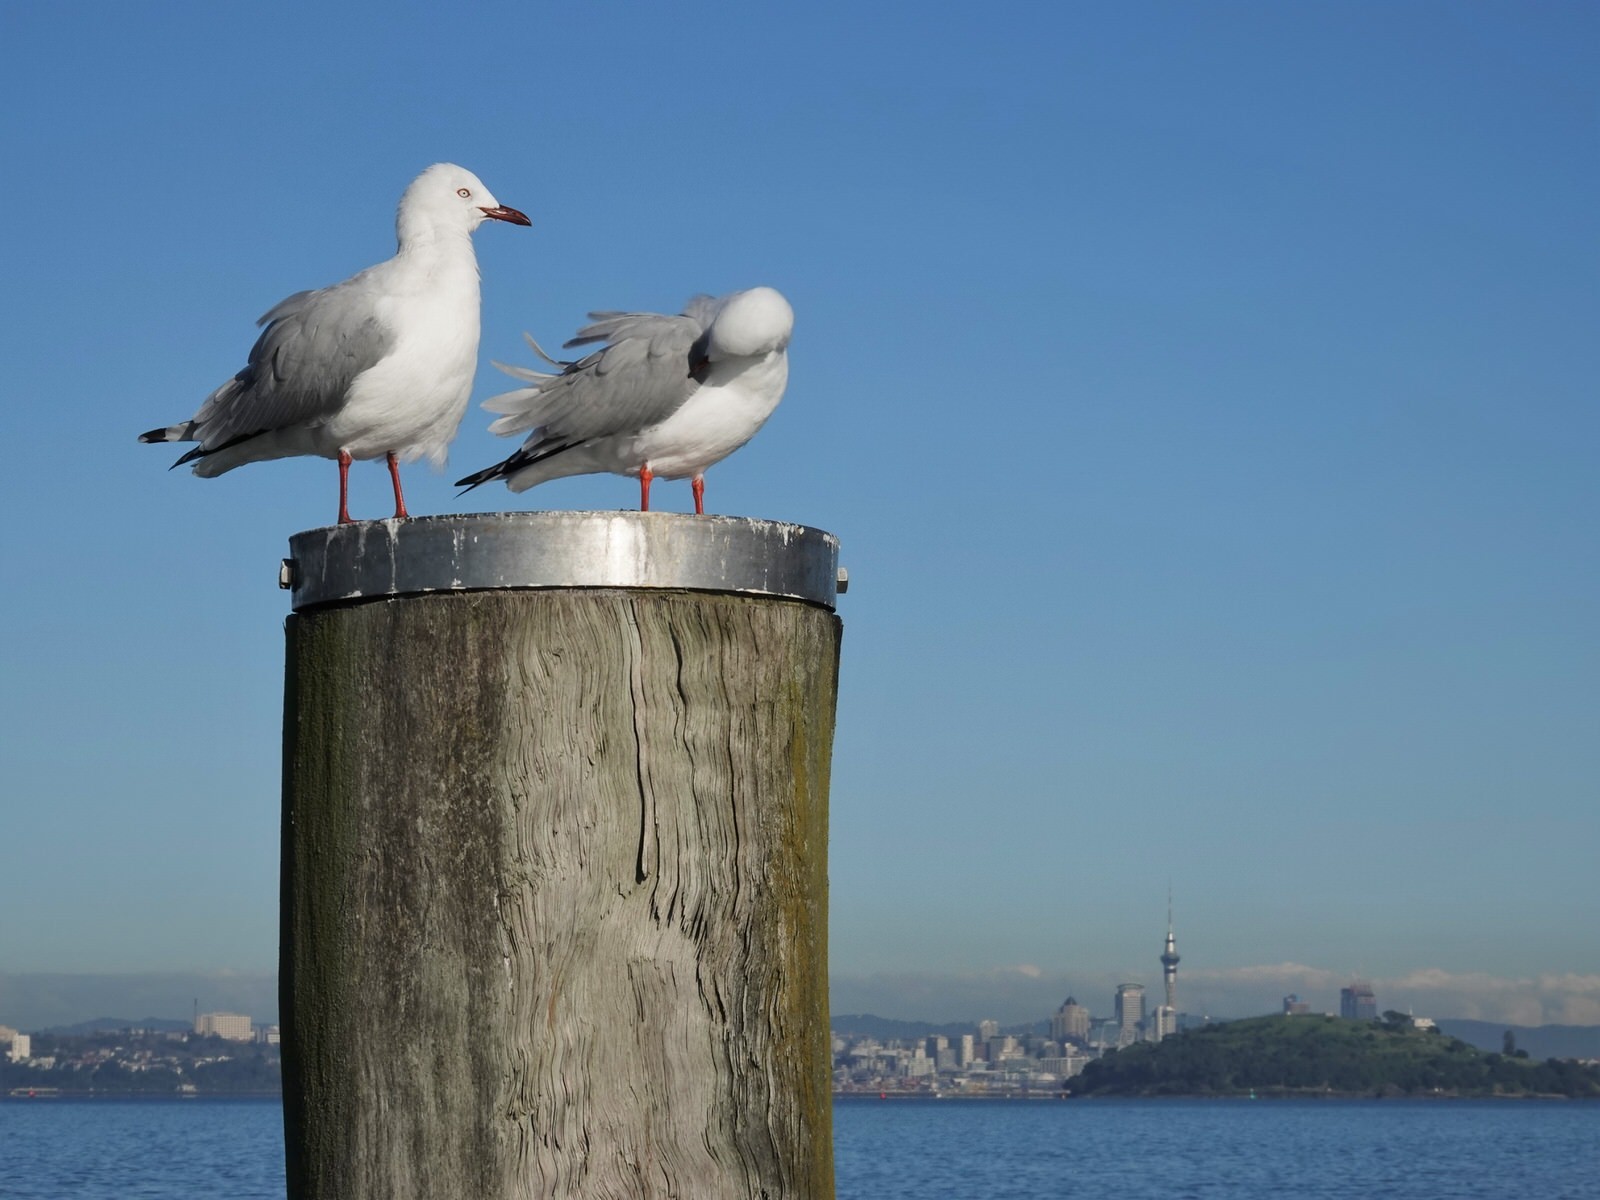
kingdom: Animalia
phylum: Chordata
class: Aves
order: Charadriiformes
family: Laridae
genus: Chroicocephalus
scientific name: Chroicocephalus novaehollandiae
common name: Silver gull
